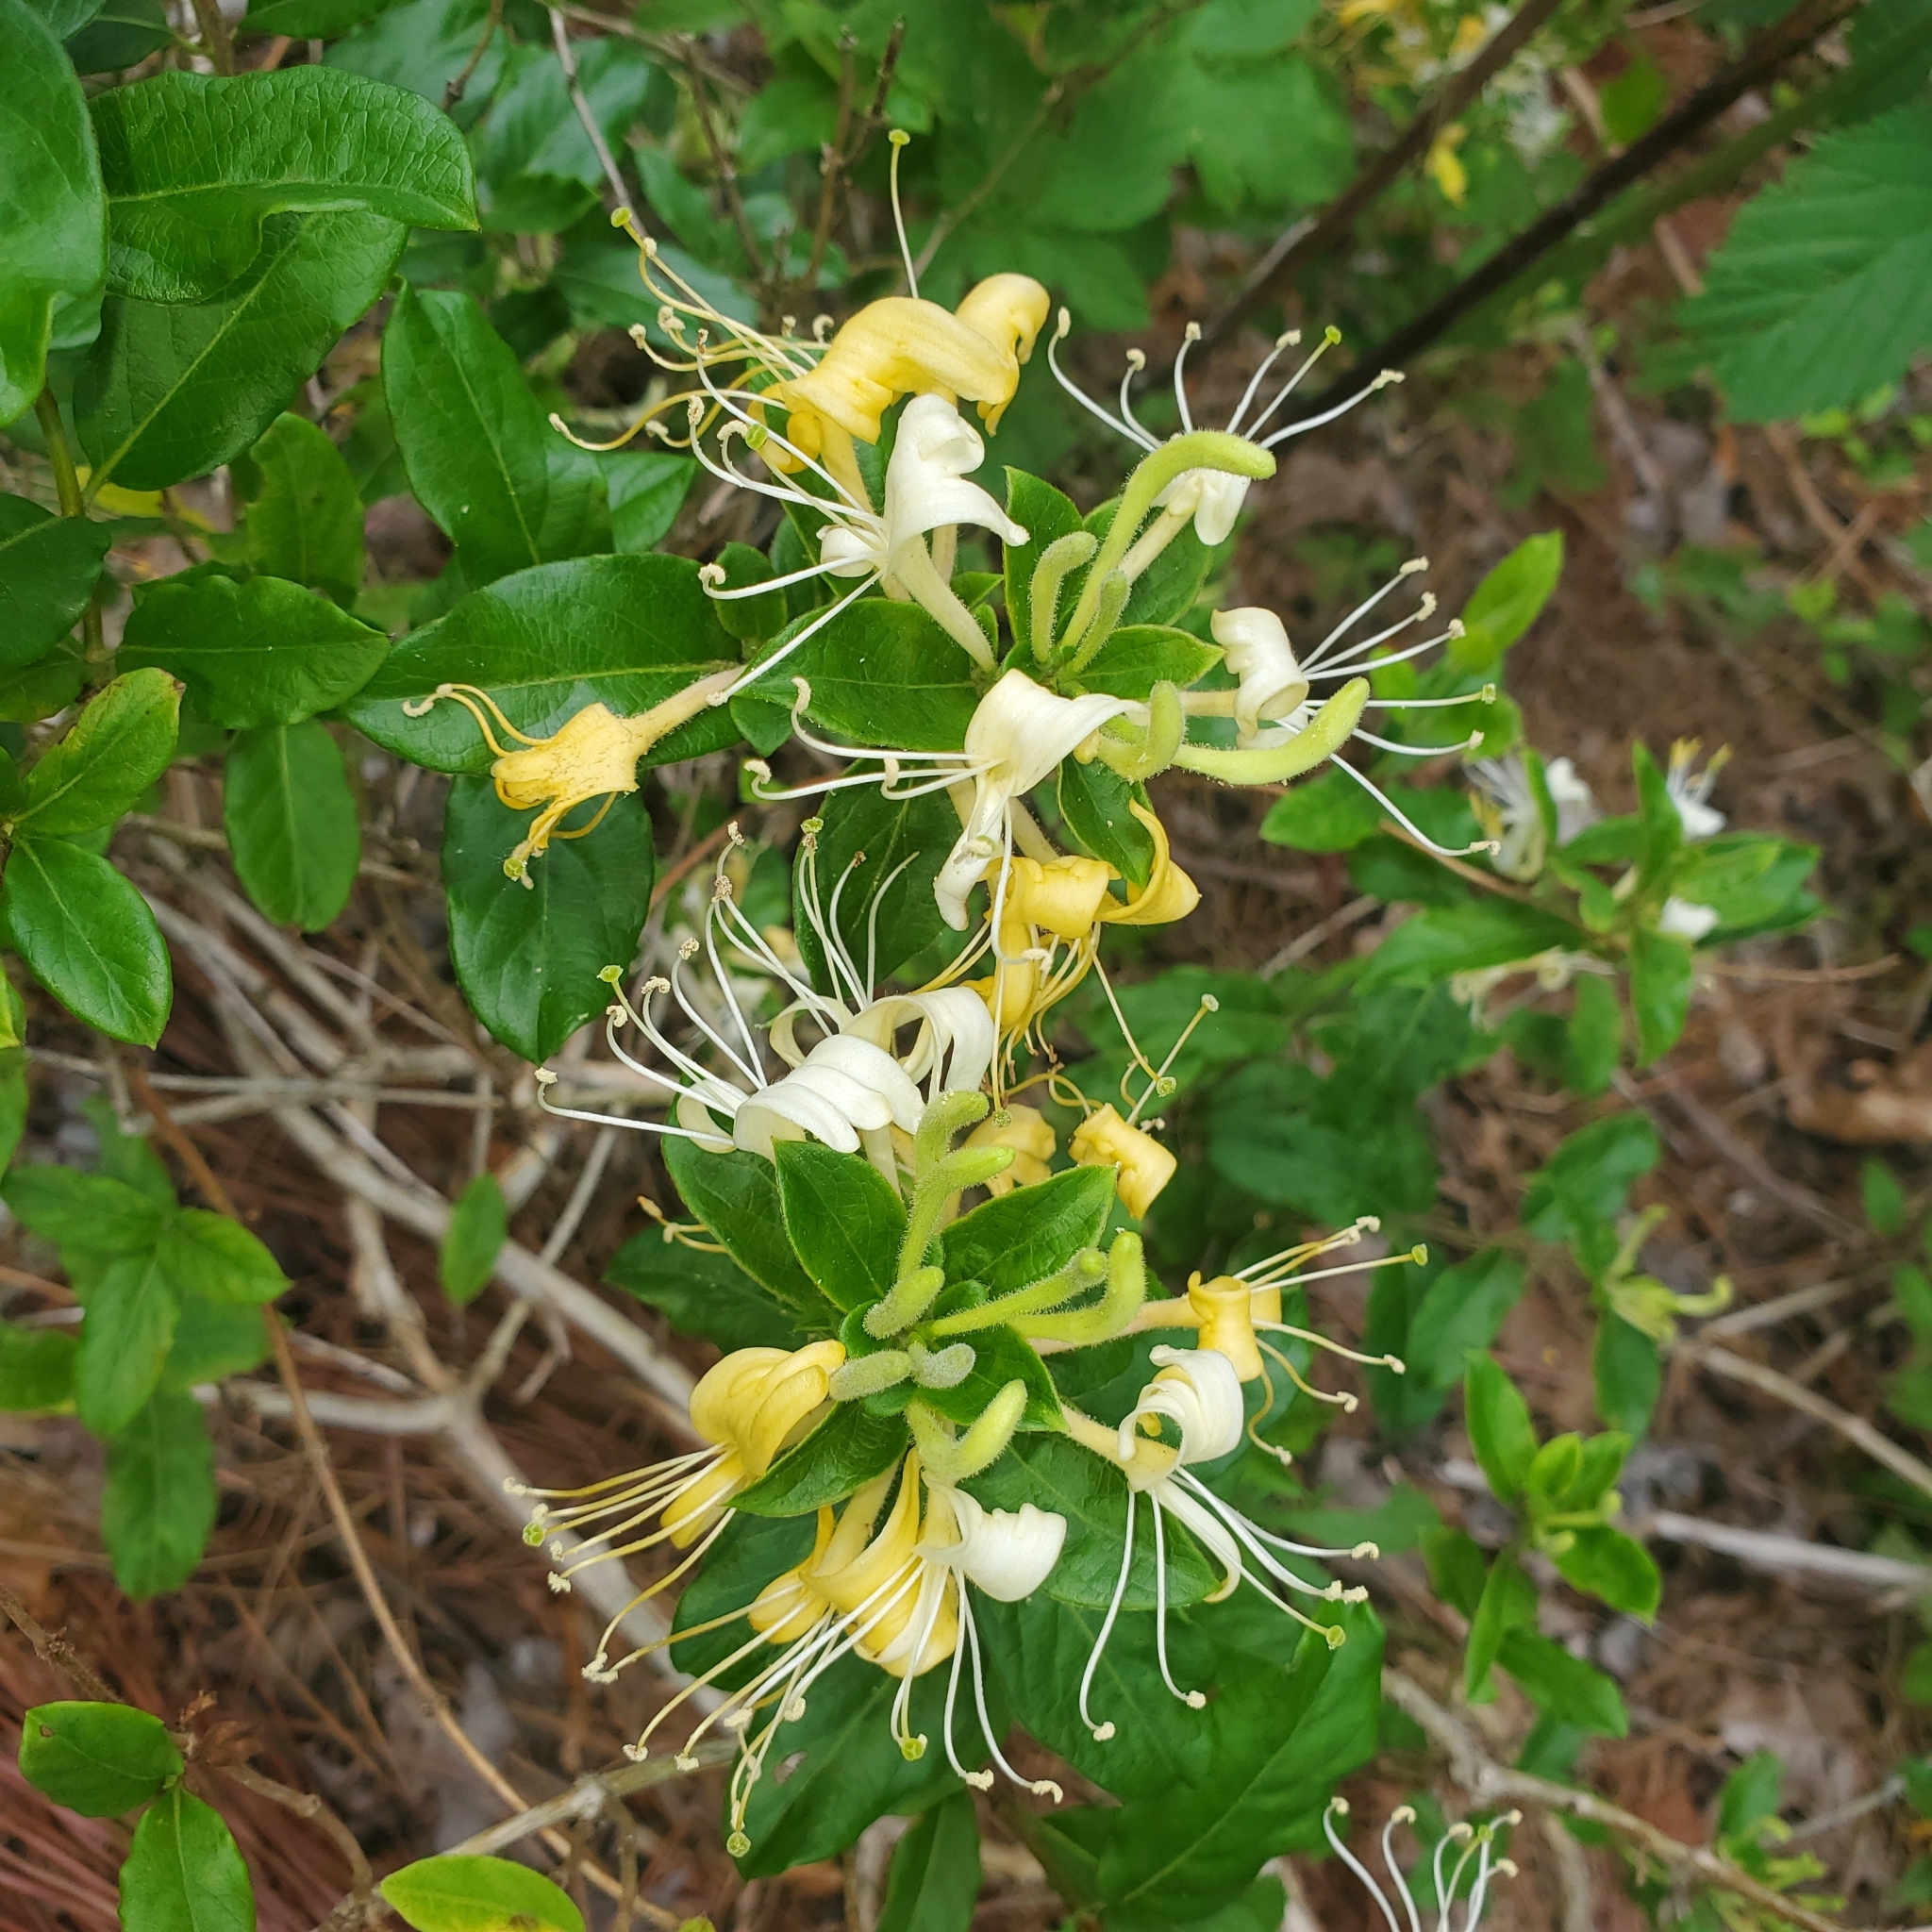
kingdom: Plantae
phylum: Tracheophyta
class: Magnoliopsida
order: Dipsacales
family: Caprifoliaceae
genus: Lonicera
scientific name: Lonicera japonica
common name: Japanese honeysuckle
